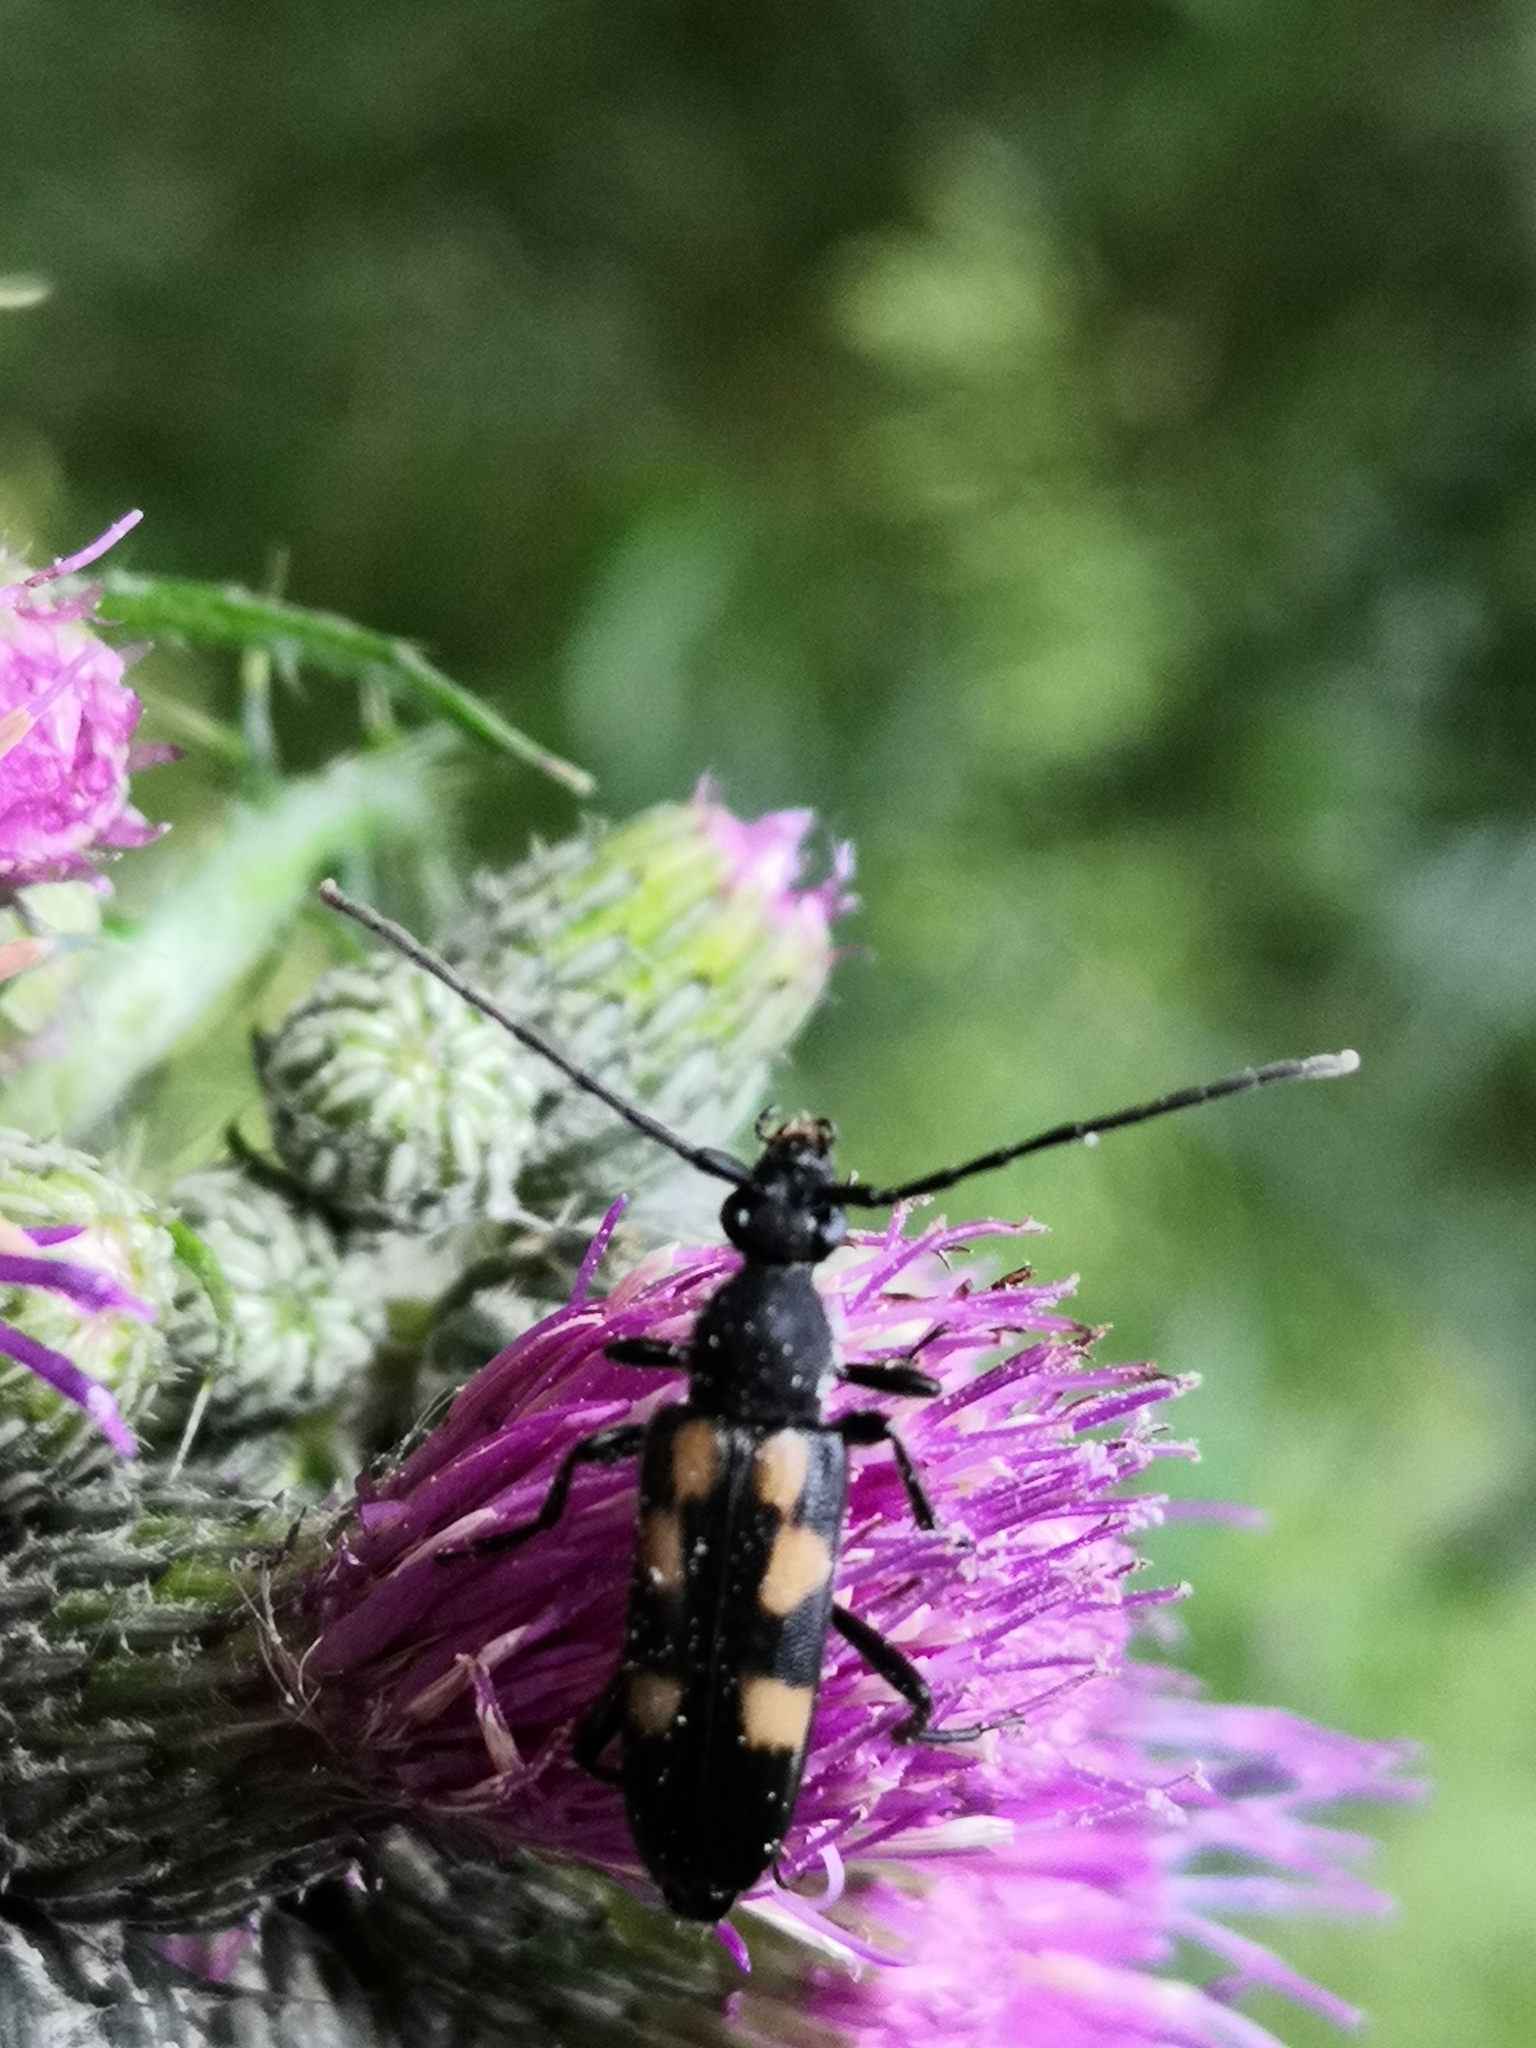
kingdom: Animalia
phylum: Arthropoda
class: Insecta
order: Coleoptera
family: Cerambycidae
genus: Anoplodera
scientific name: Anoplodera sexguttata
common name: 6 spotted longhorn
